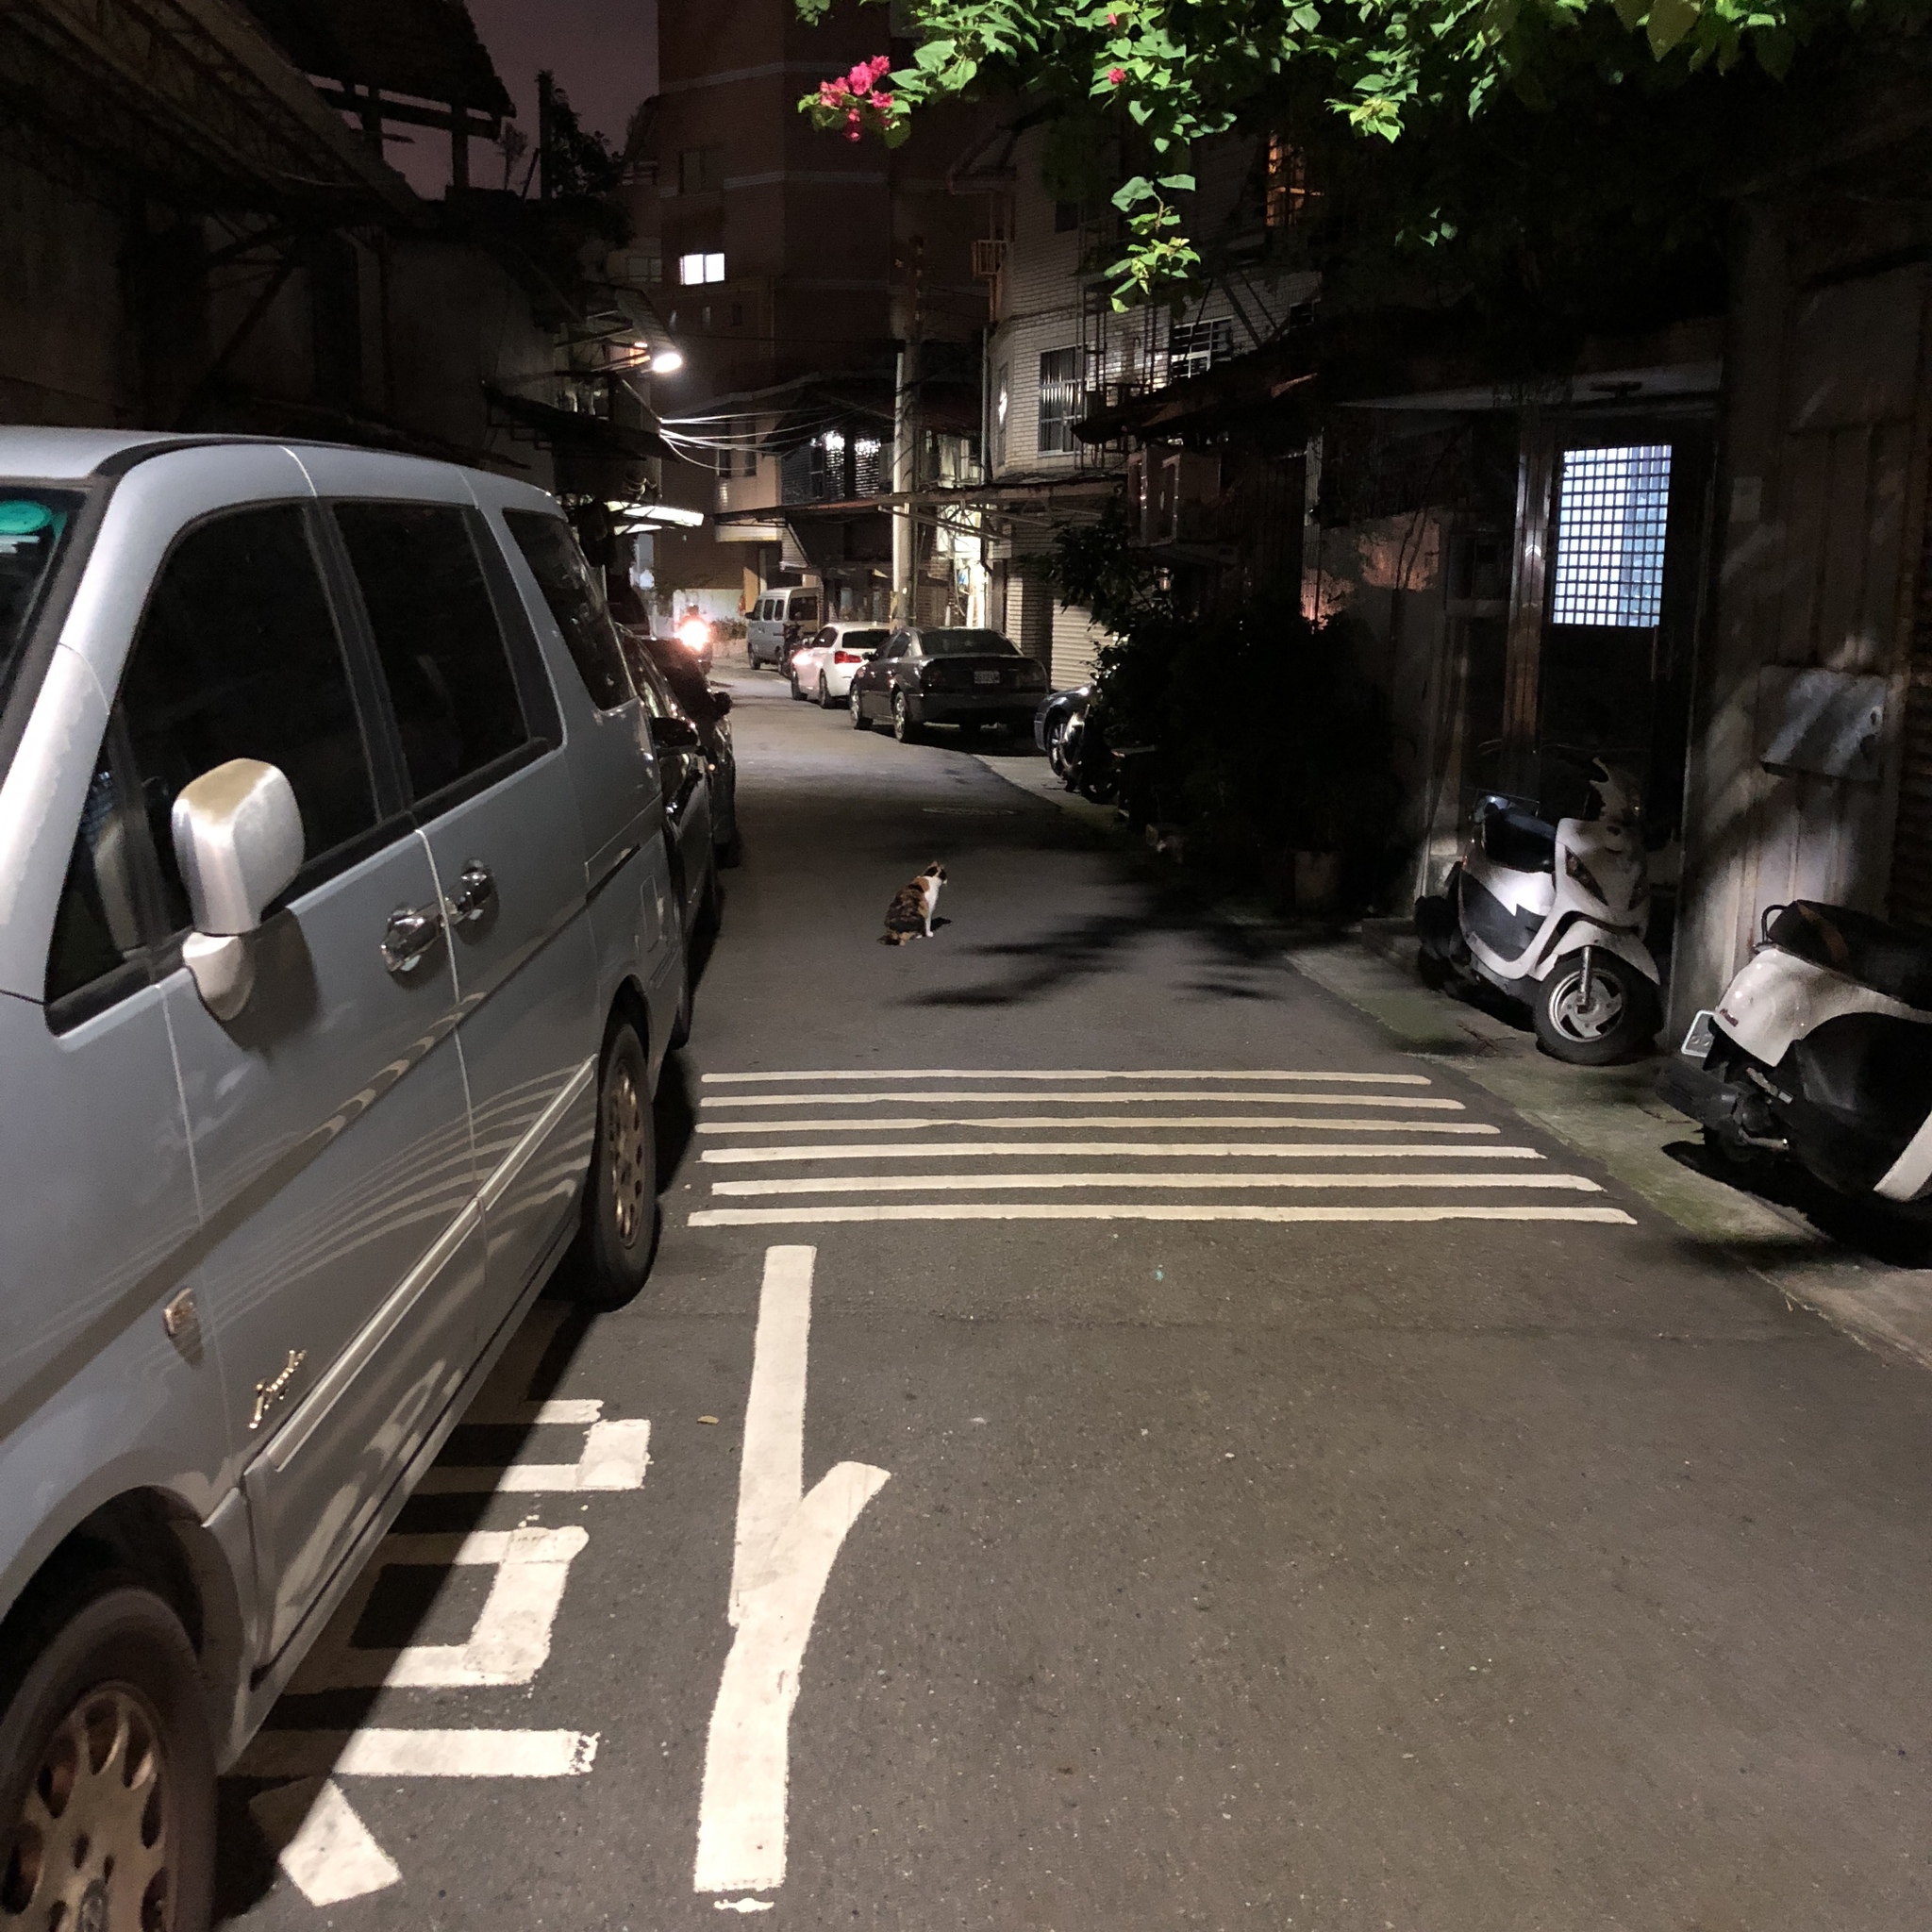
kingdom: Animalia
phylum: Chordata
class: Mammalia
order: Carnivora
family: Felidae
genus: Felis
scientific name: Felis catus
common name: Domestic cat
